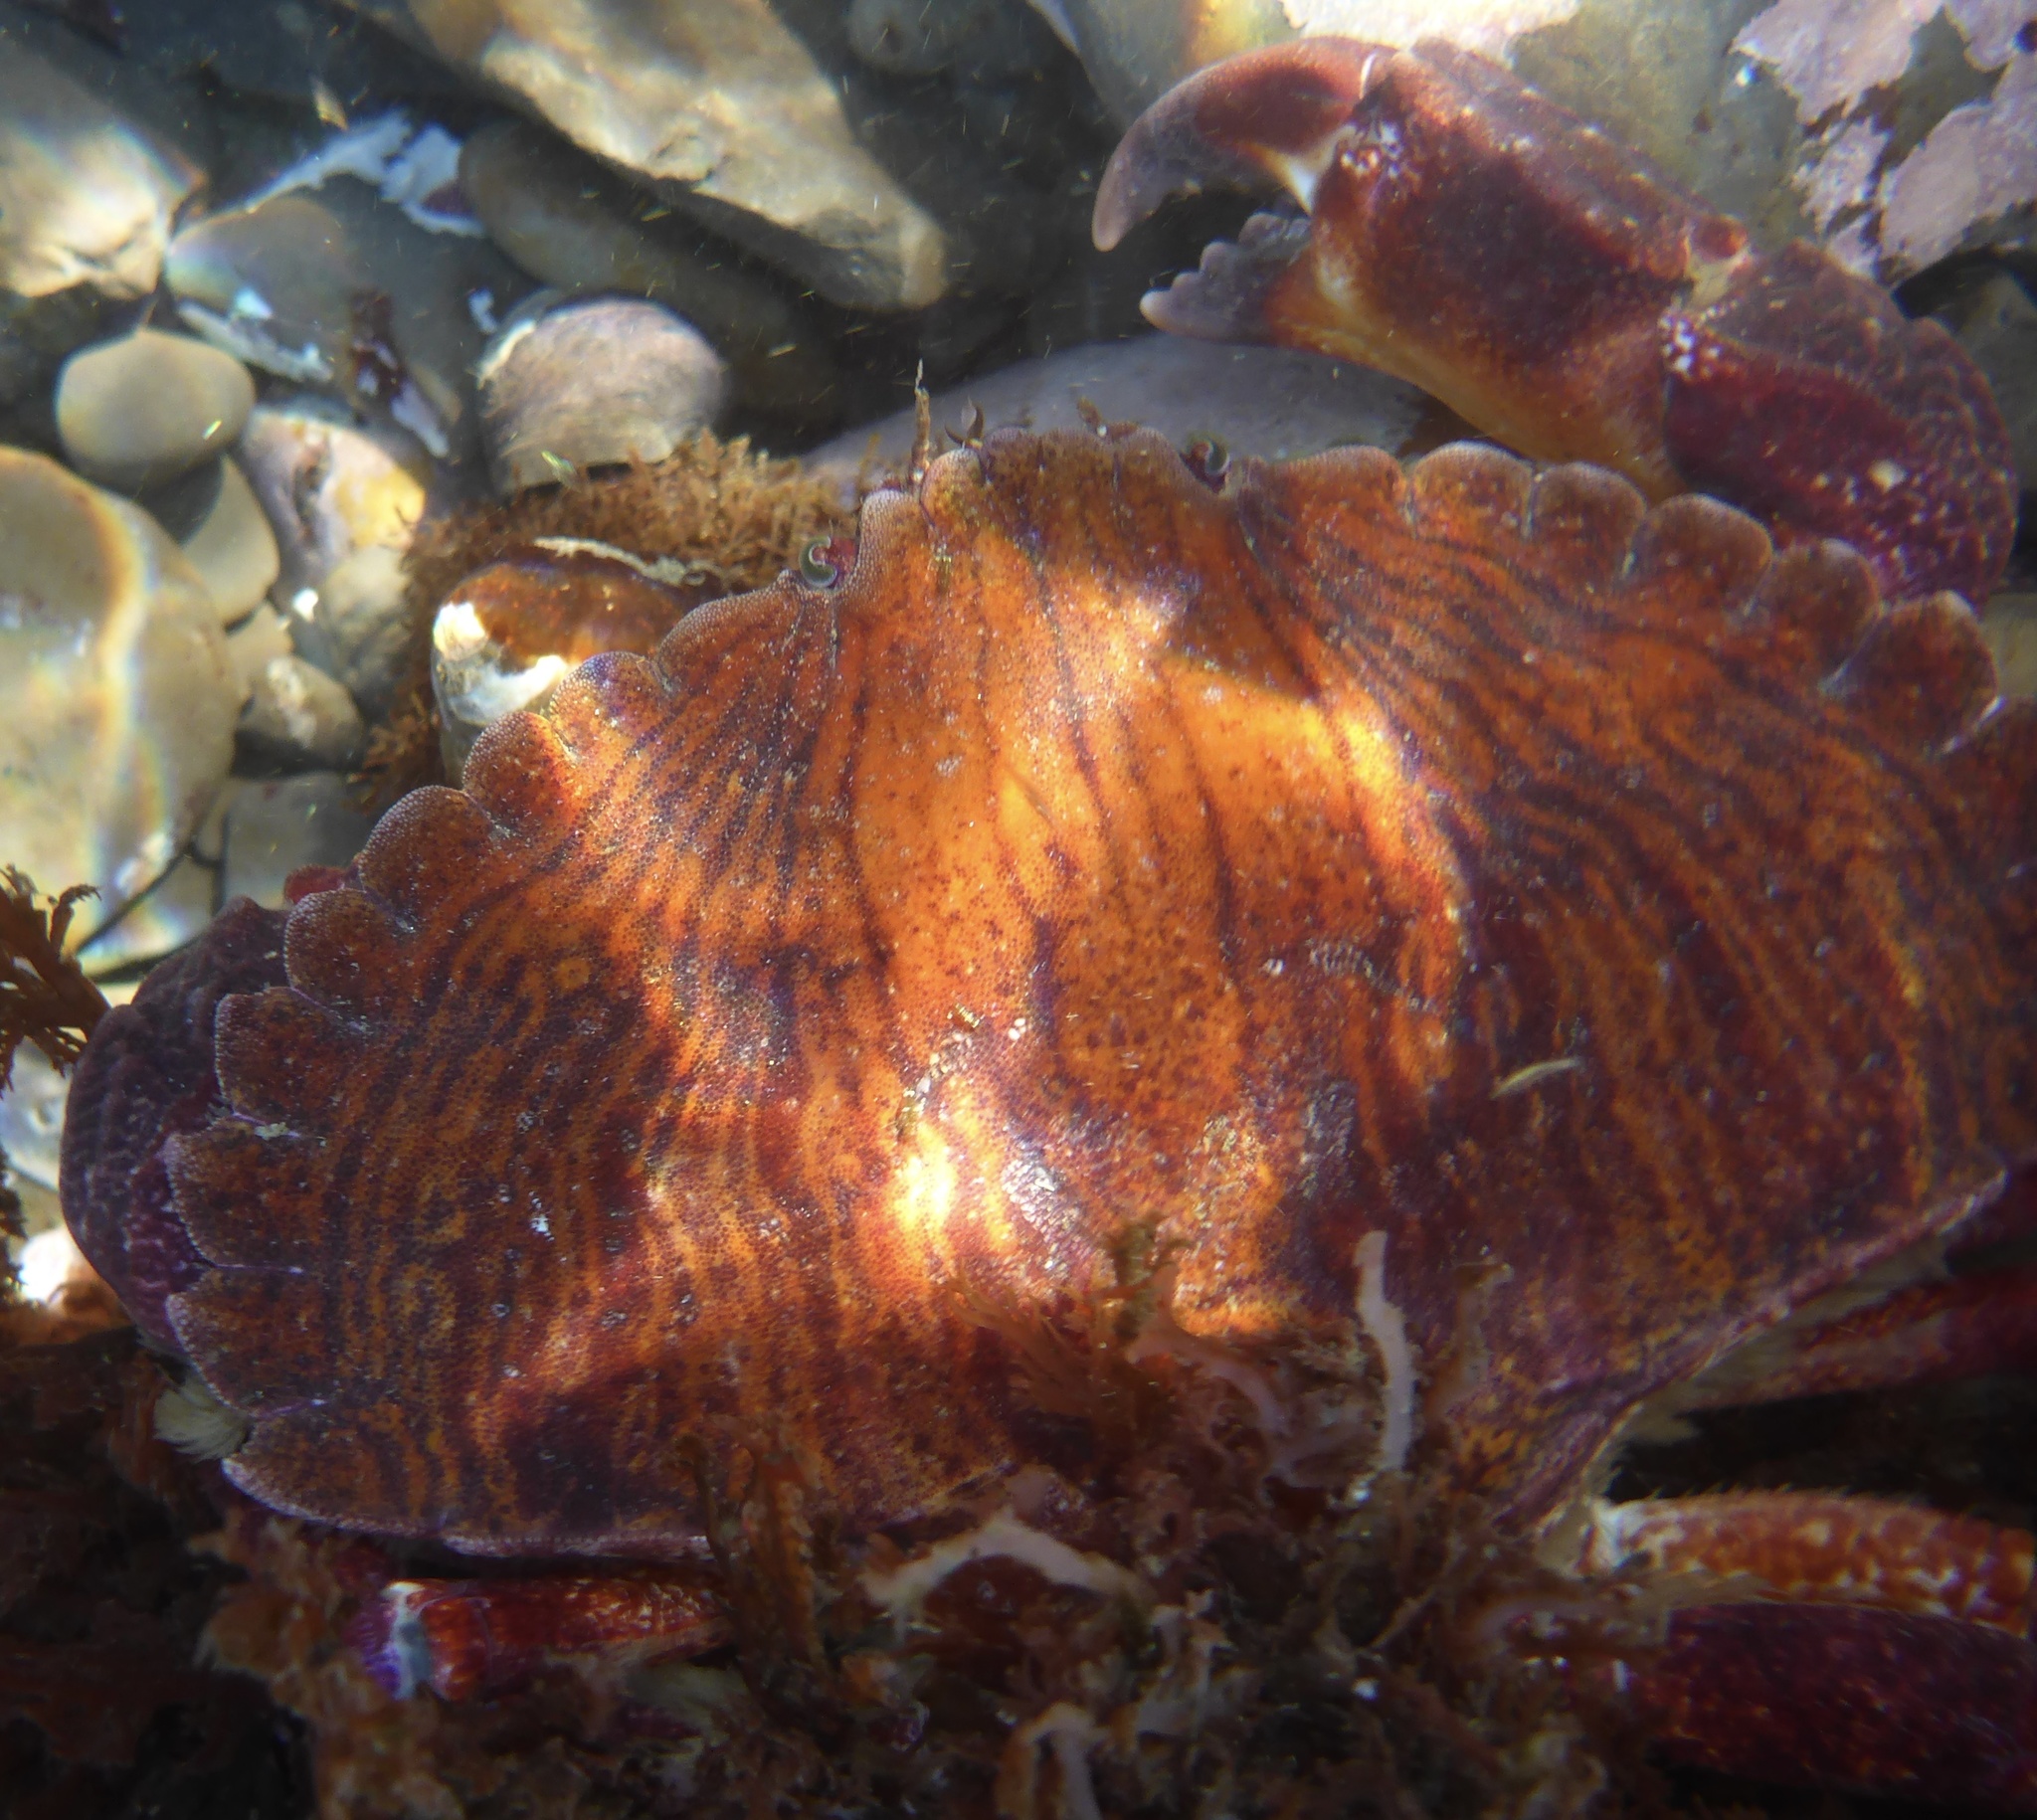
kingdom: Animalia
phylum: Arthropoda
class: Malacostraca
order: Decapoda
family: Cancridae
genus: Cancer
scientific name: Cancer productus
